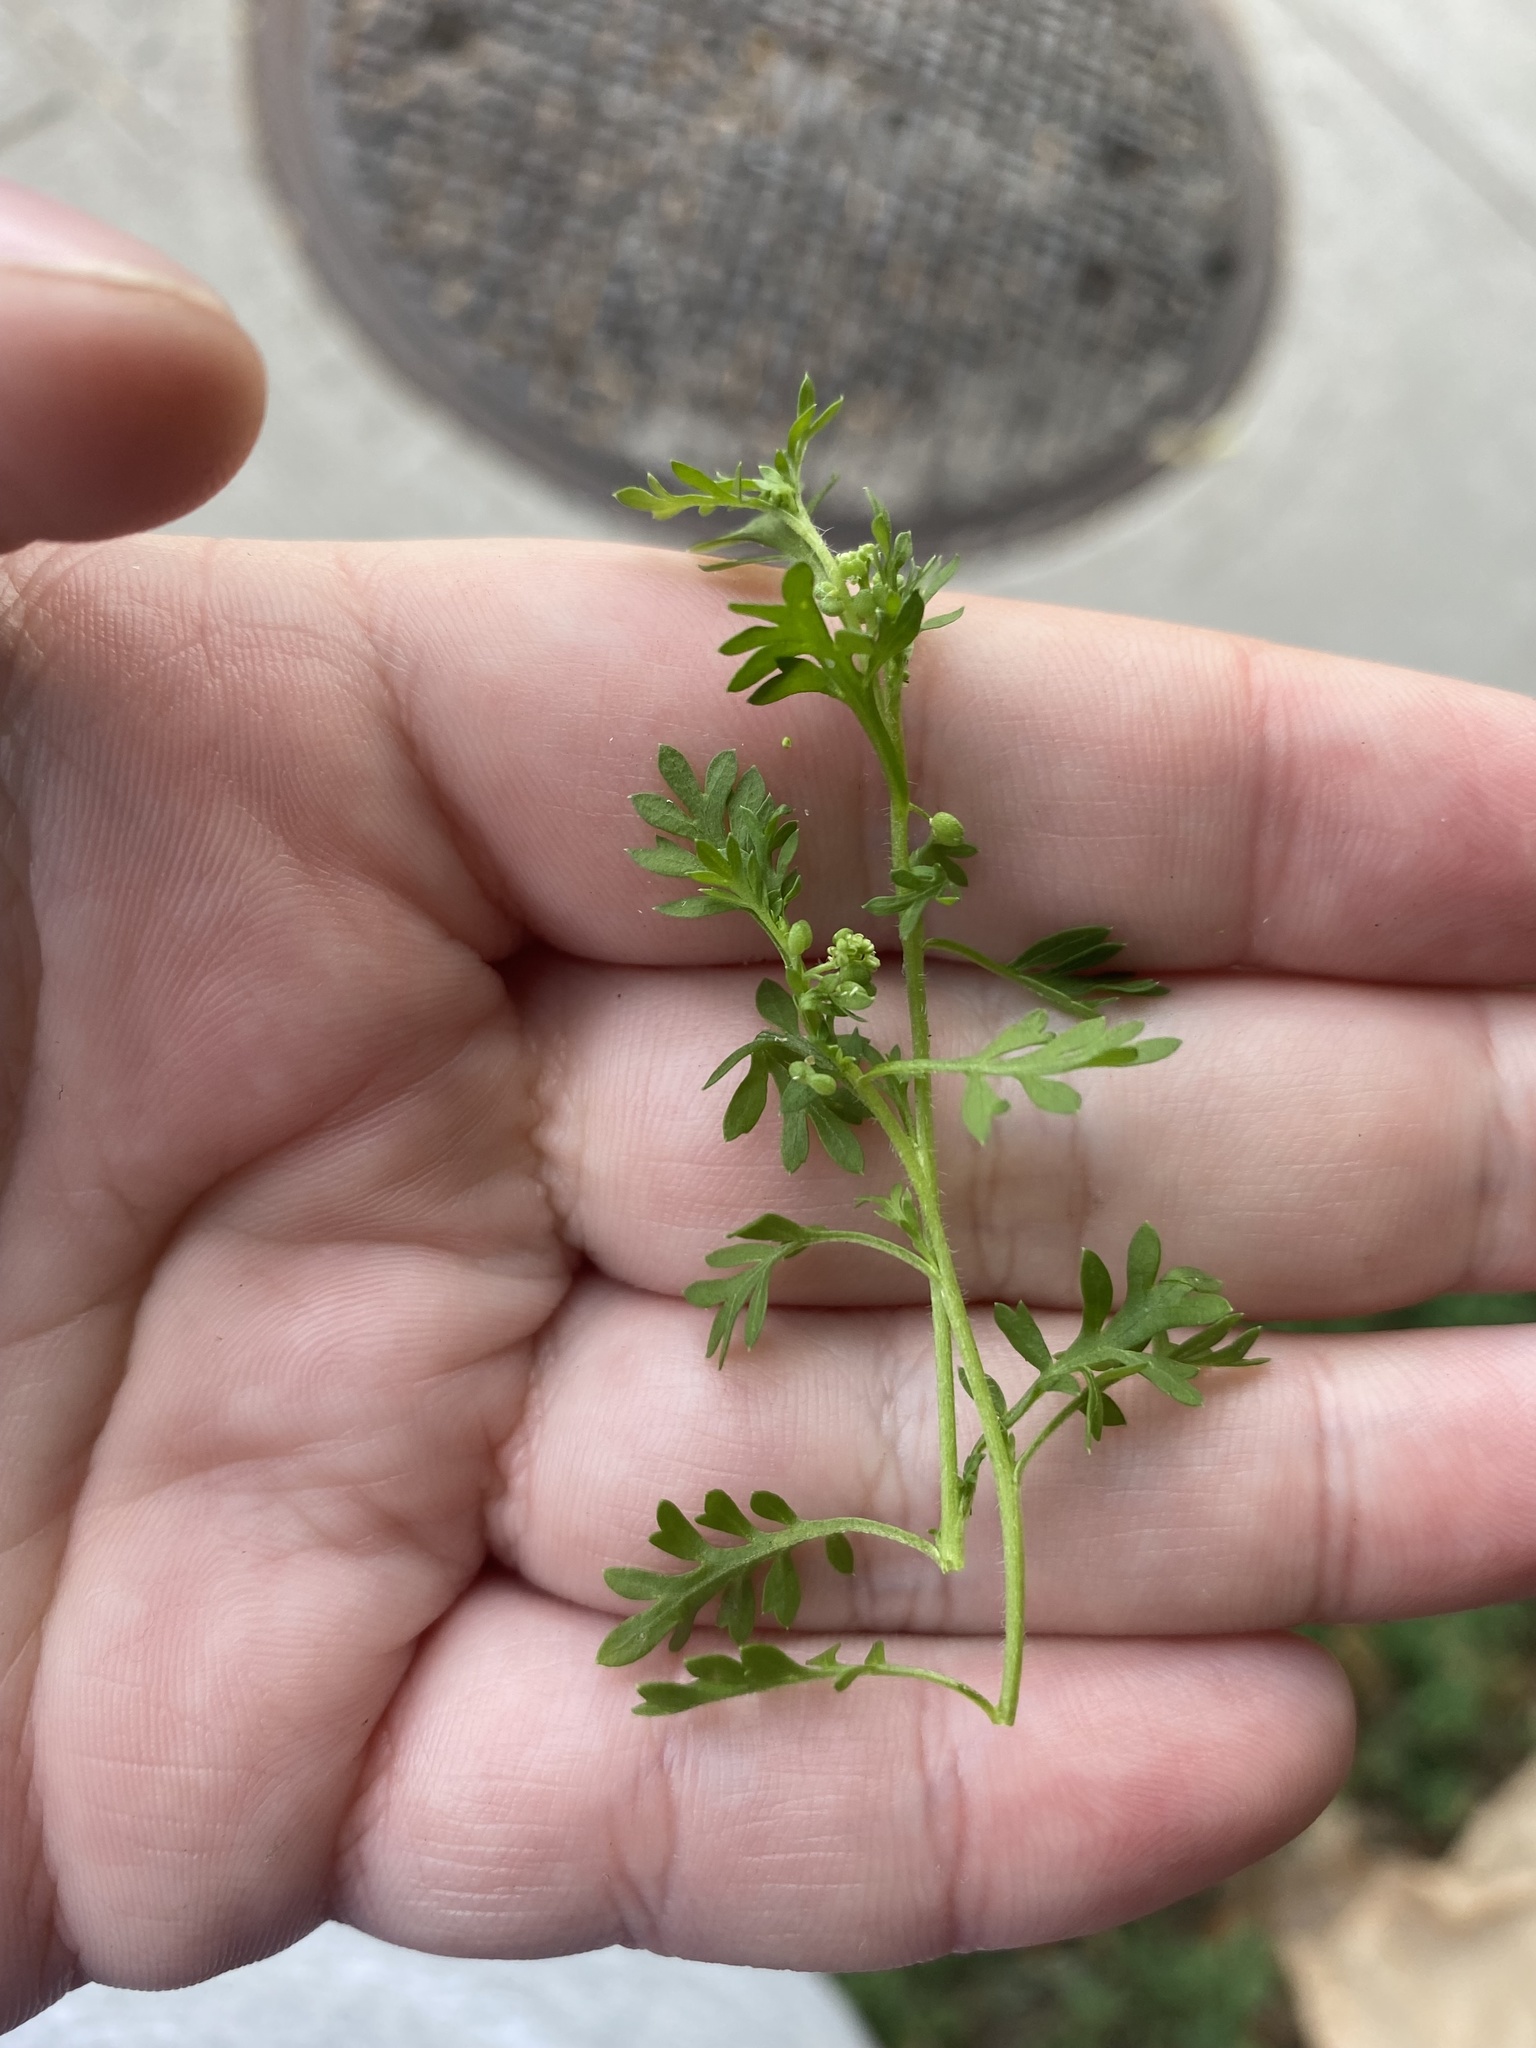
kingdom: Plantae
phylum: Tracheophyta
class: Magnoliopsida
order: Brassicales
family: Brassicaceae
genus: Lepidium
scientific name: Lepidium didymum
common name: Lesser swinecress
